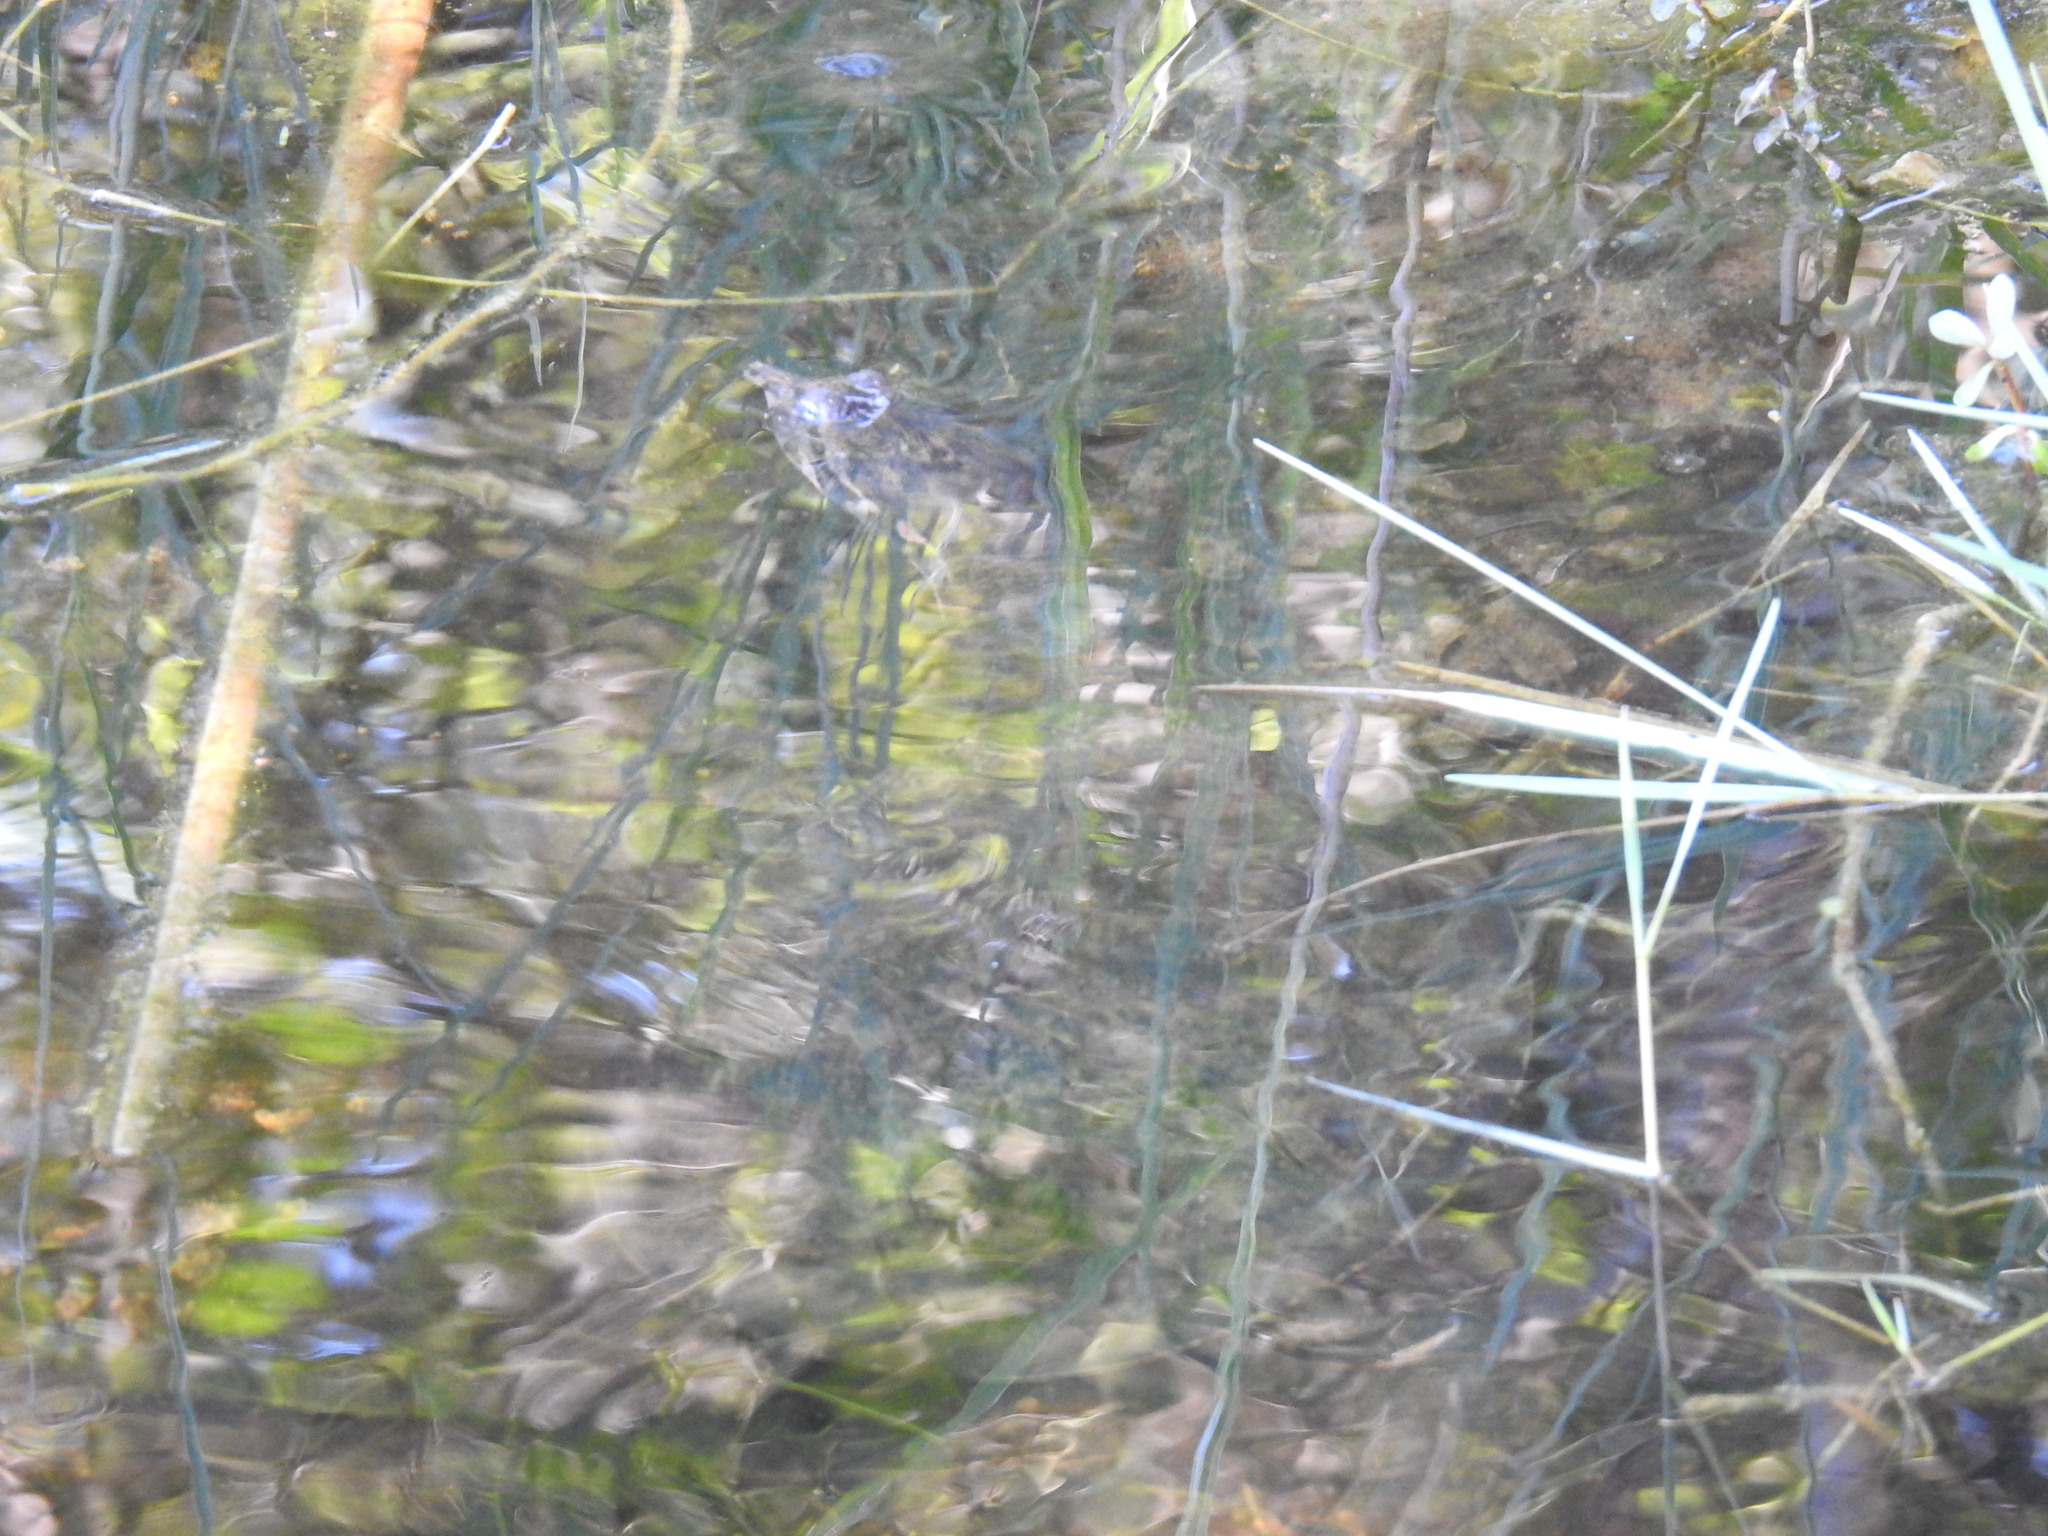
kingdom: Animalia
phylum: Chordata
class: Testudines
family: Trionychidae
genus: Apalone
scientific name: Apalone ferox
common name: Florida softshell turtle
